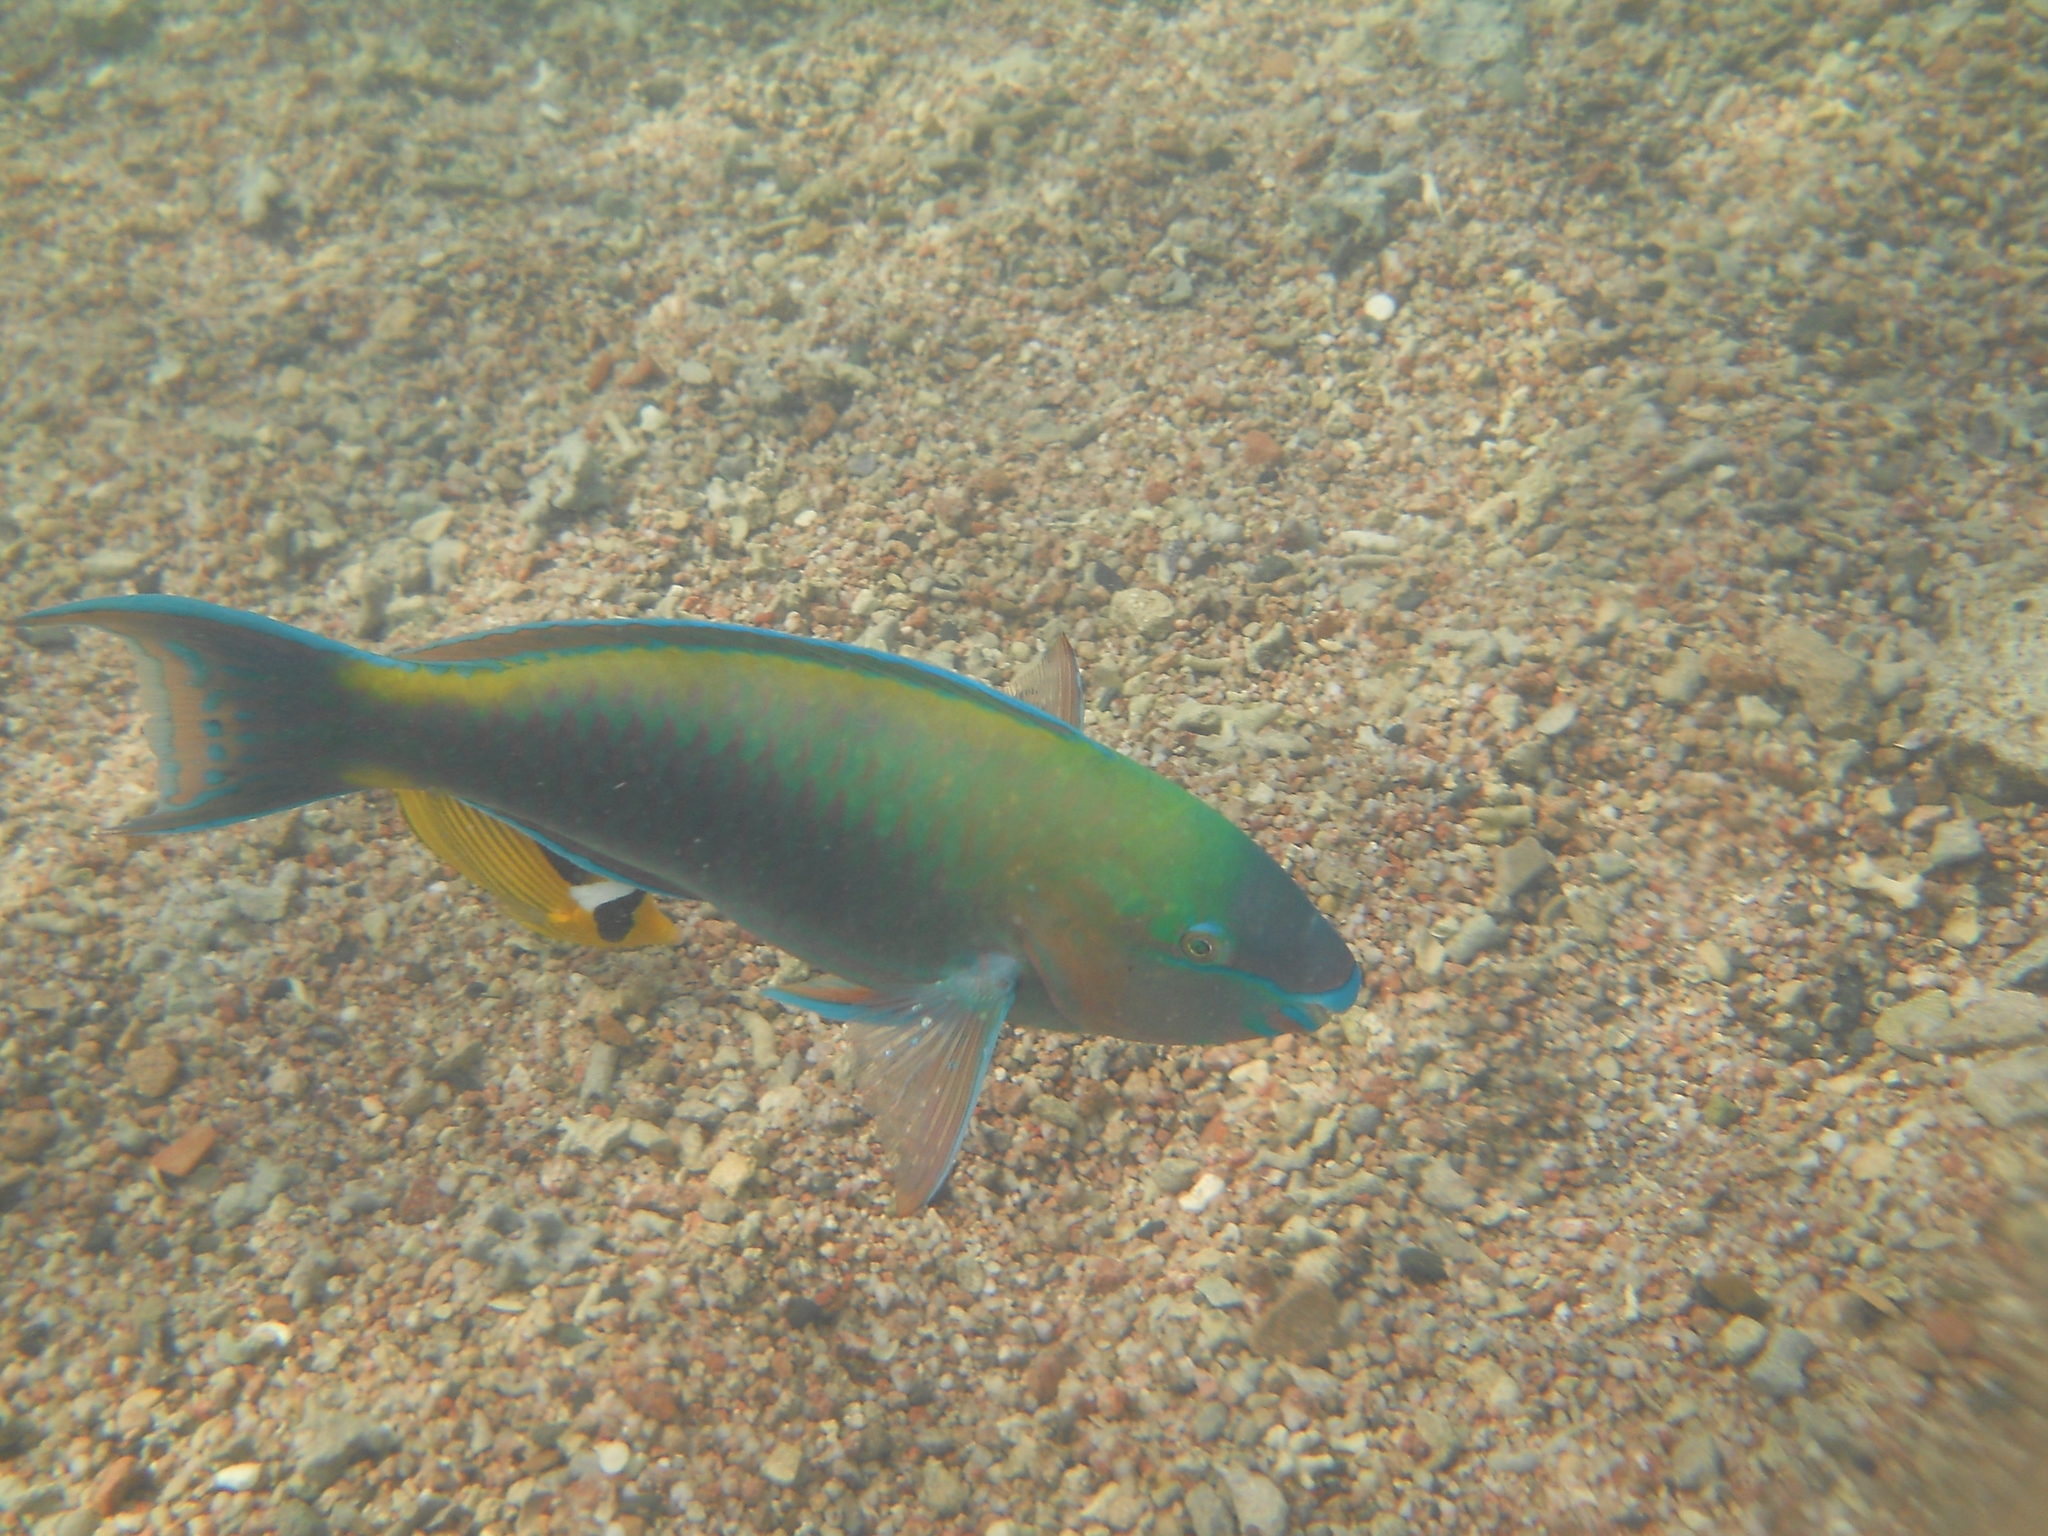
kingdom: Animalia
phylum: Chordata
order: Perciformes
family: Scaridae
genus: Scarus
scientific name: Scarus psittacus
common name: Palenose parrotfish
